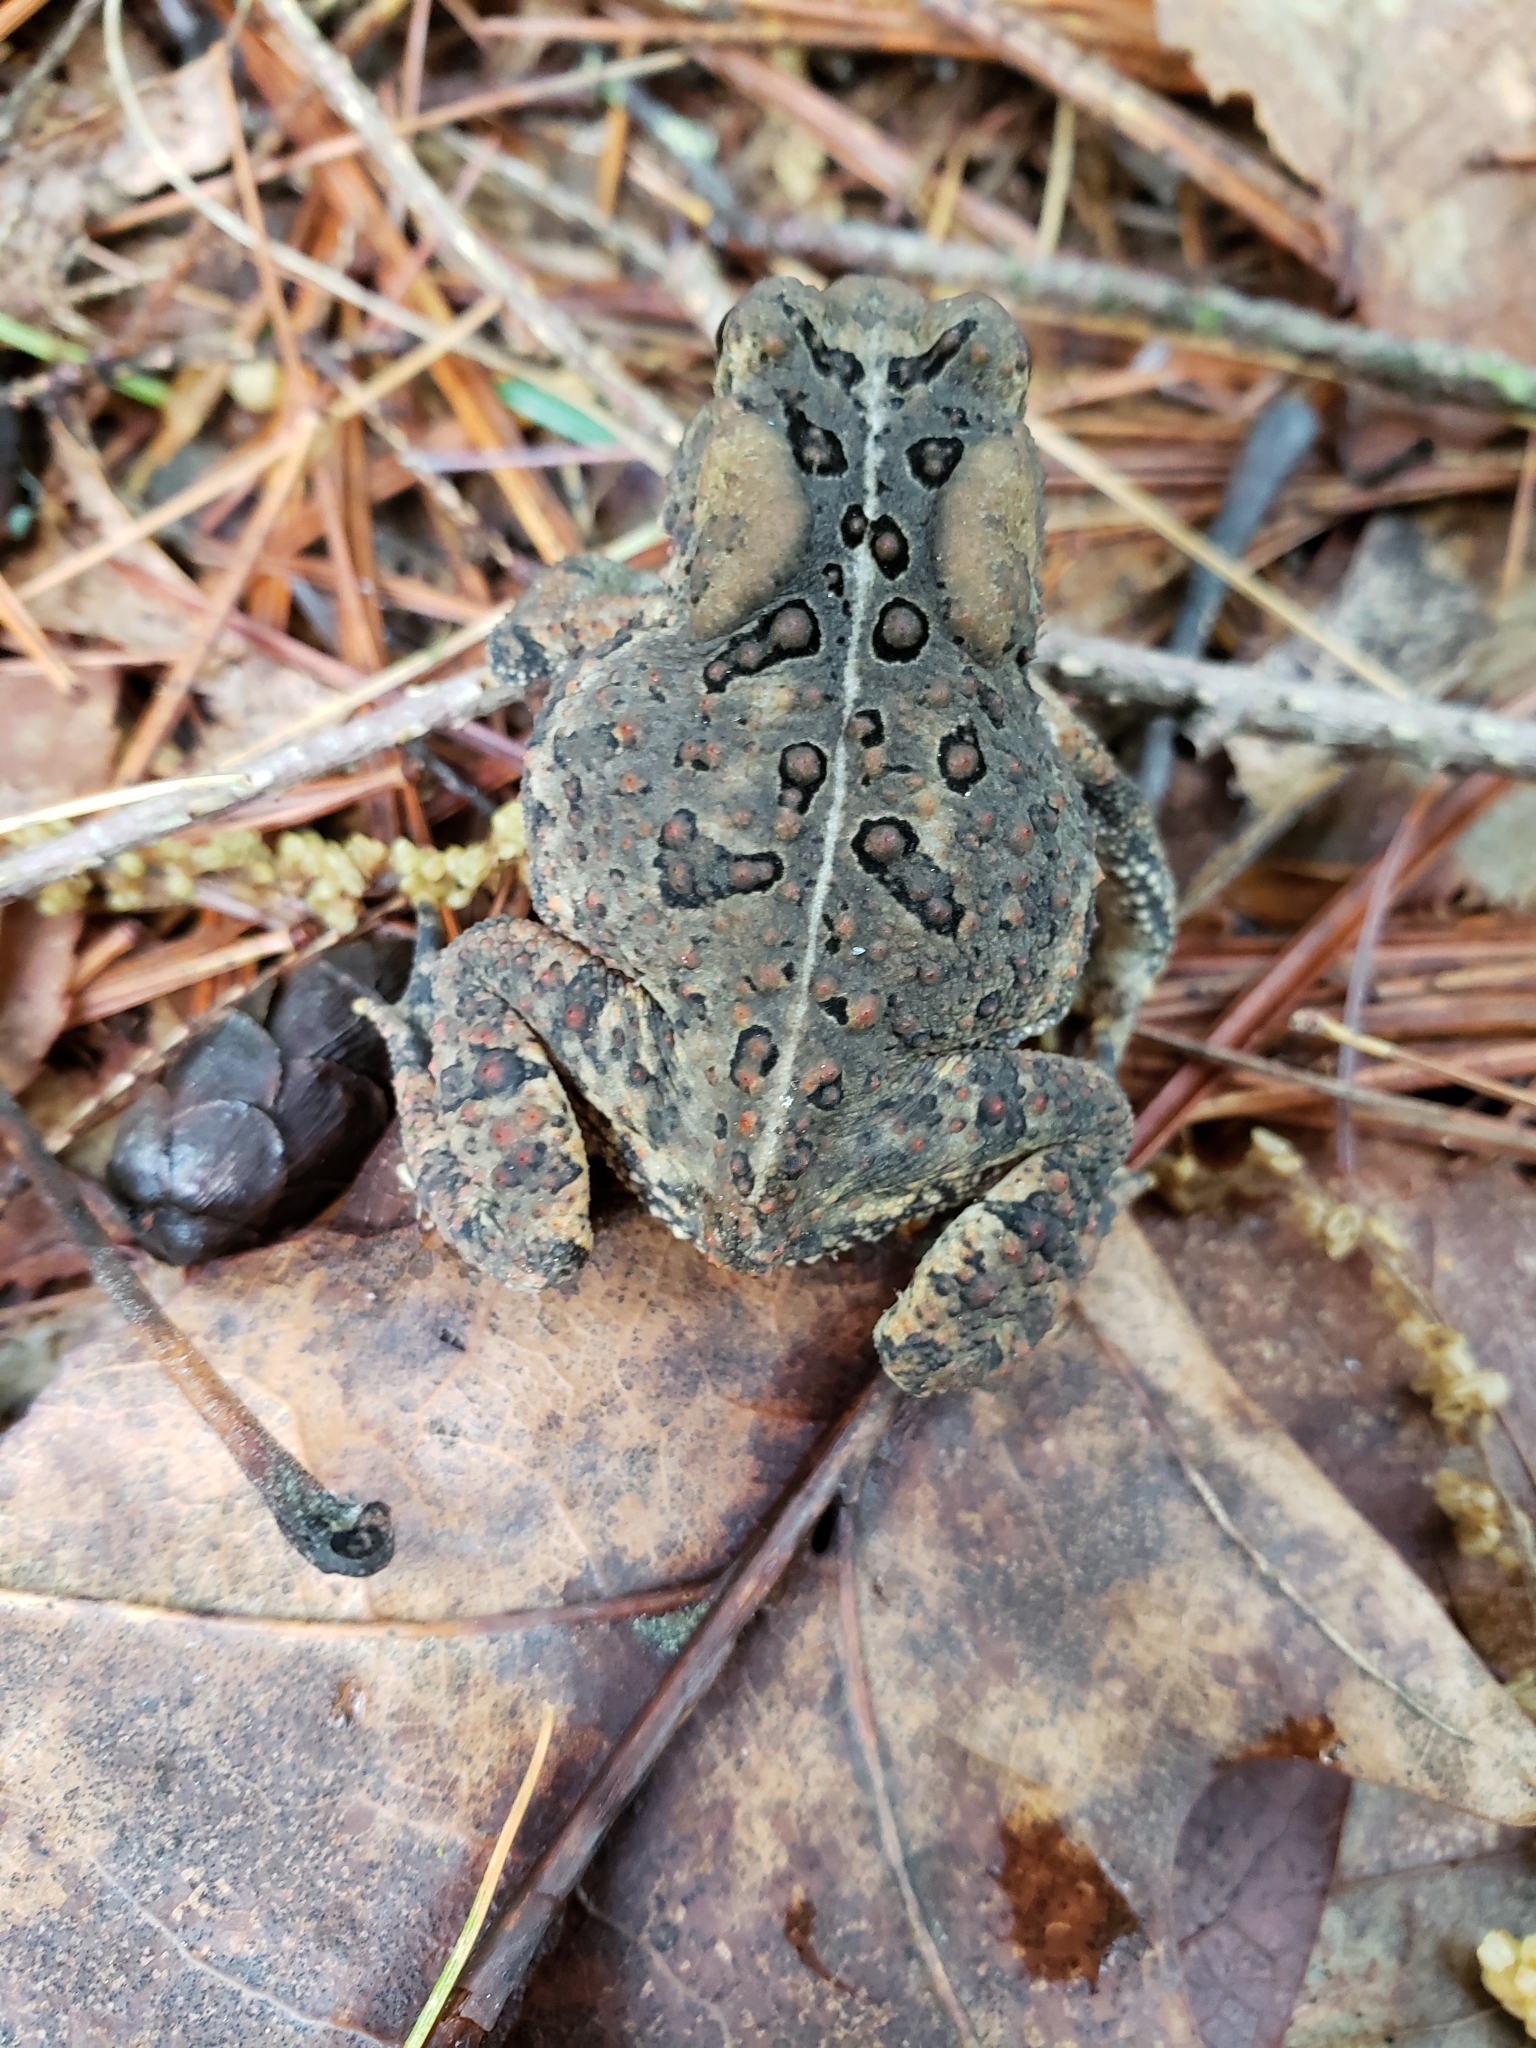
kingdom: Animalia
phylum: Chordata
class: Amphibia
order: Anura
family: Bufonidae
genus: Anaxyrus
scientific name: Anaxyrus americanus
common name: American toad
